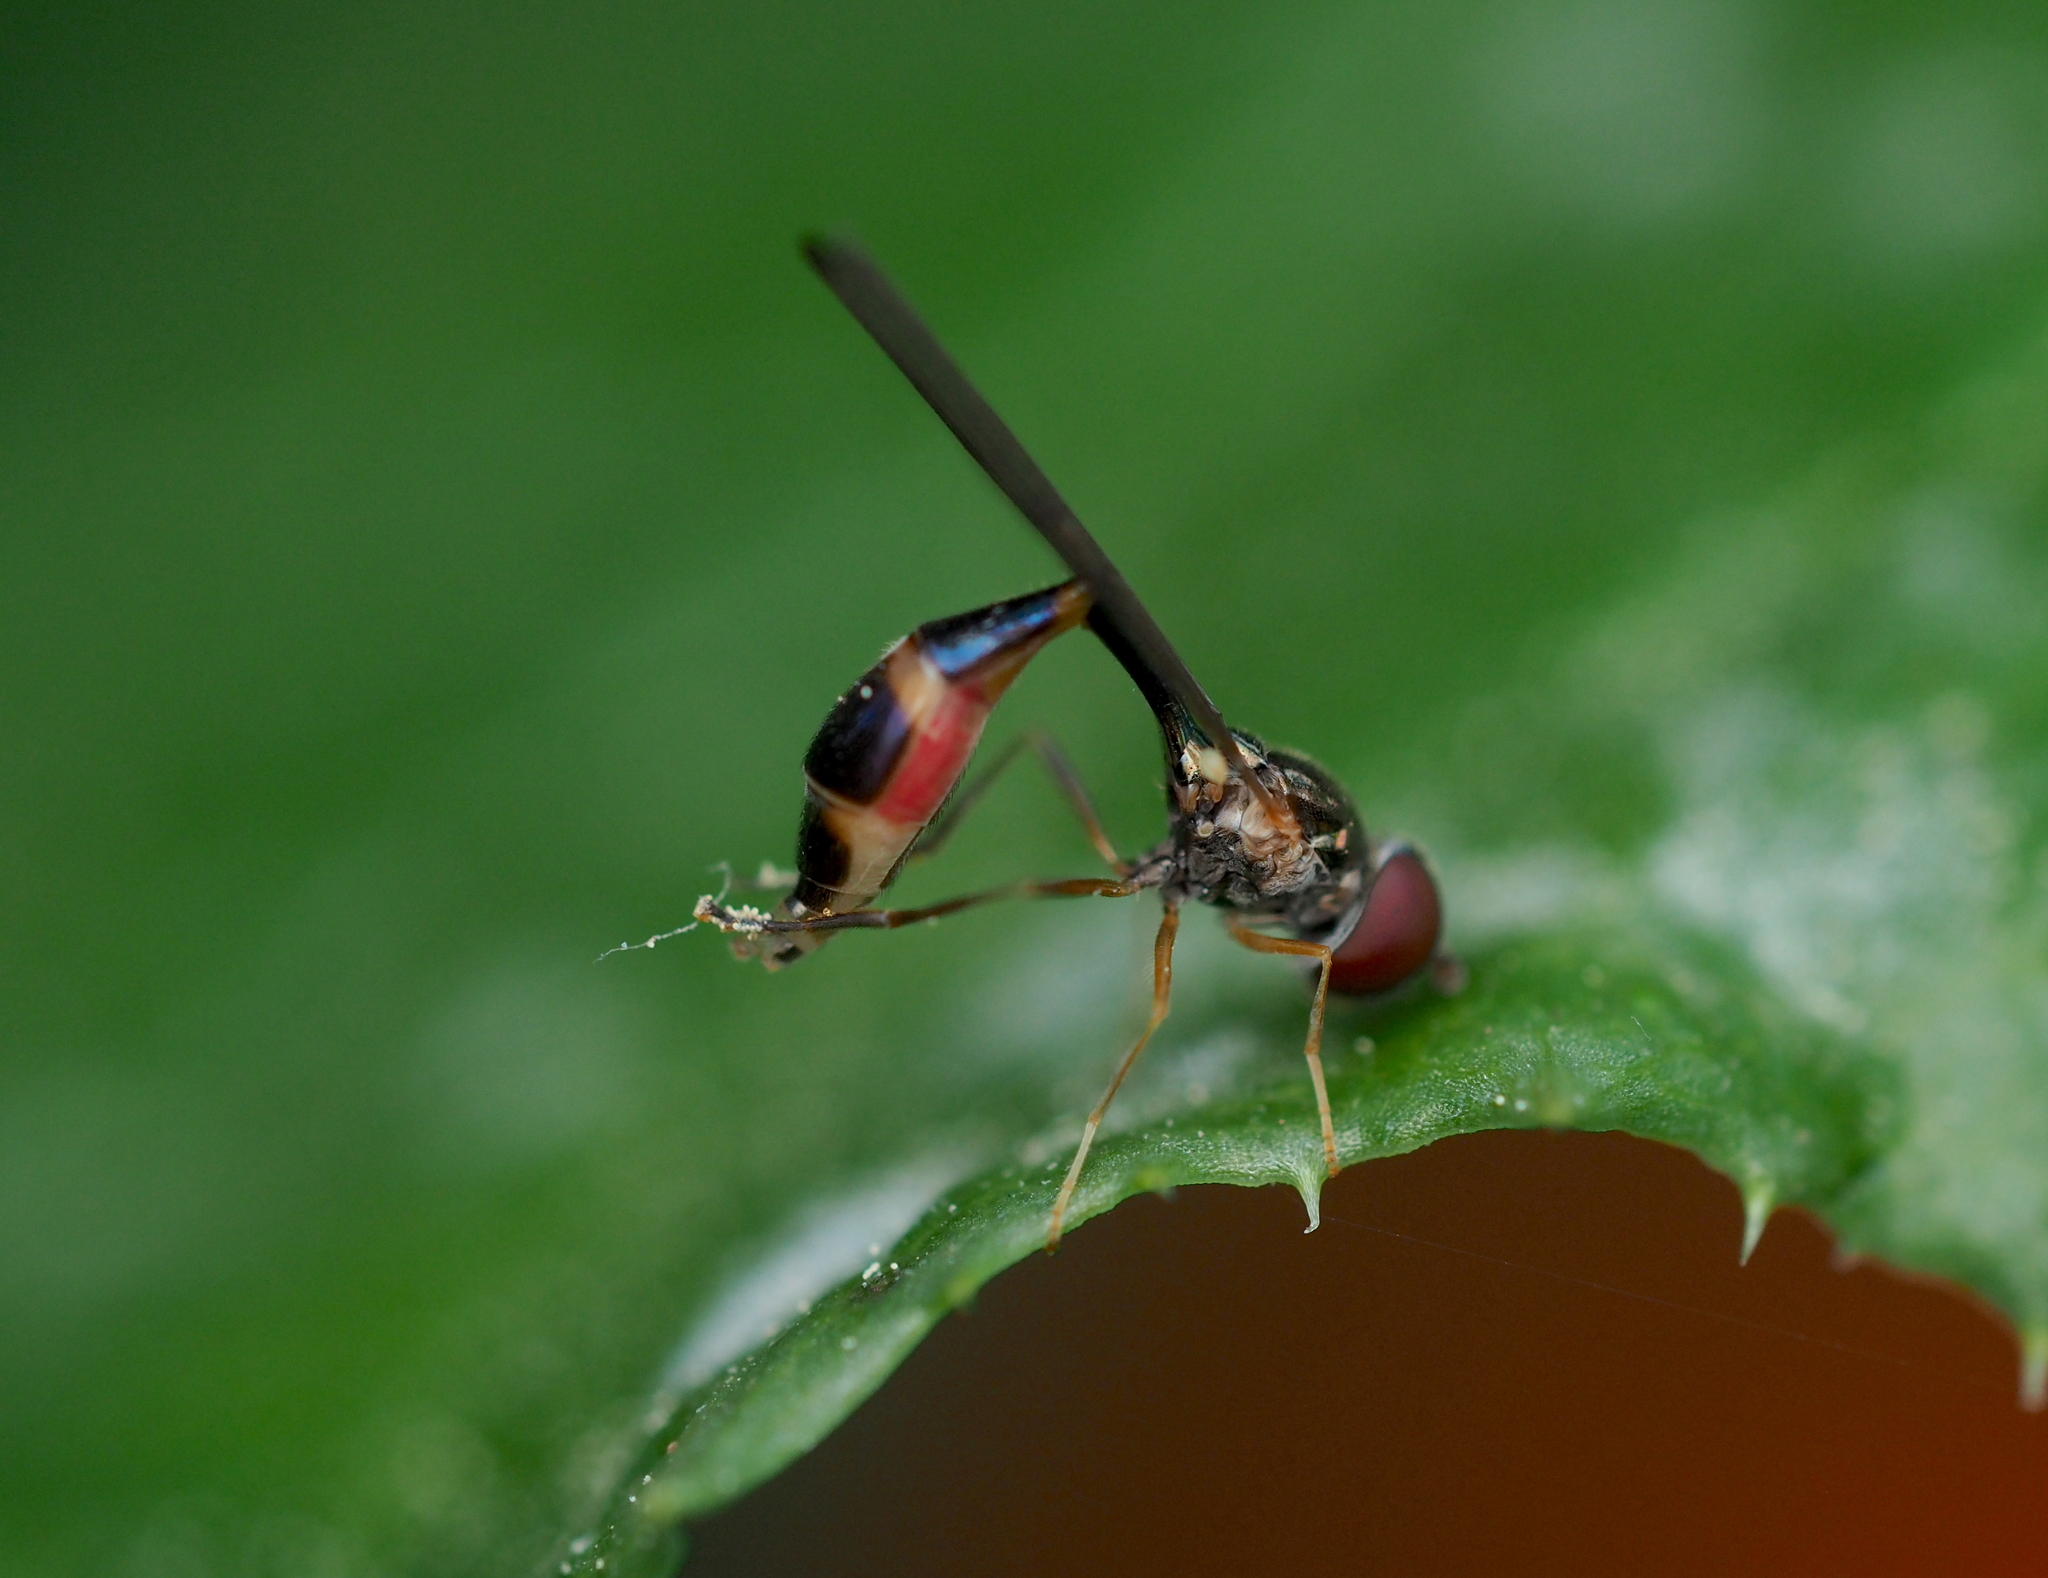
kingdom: Animalia
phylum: Arthropoda
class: Insecta
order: Diptera
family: Syrphidae
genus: Baccha
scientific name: Baccha elongata
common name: Common dainty
